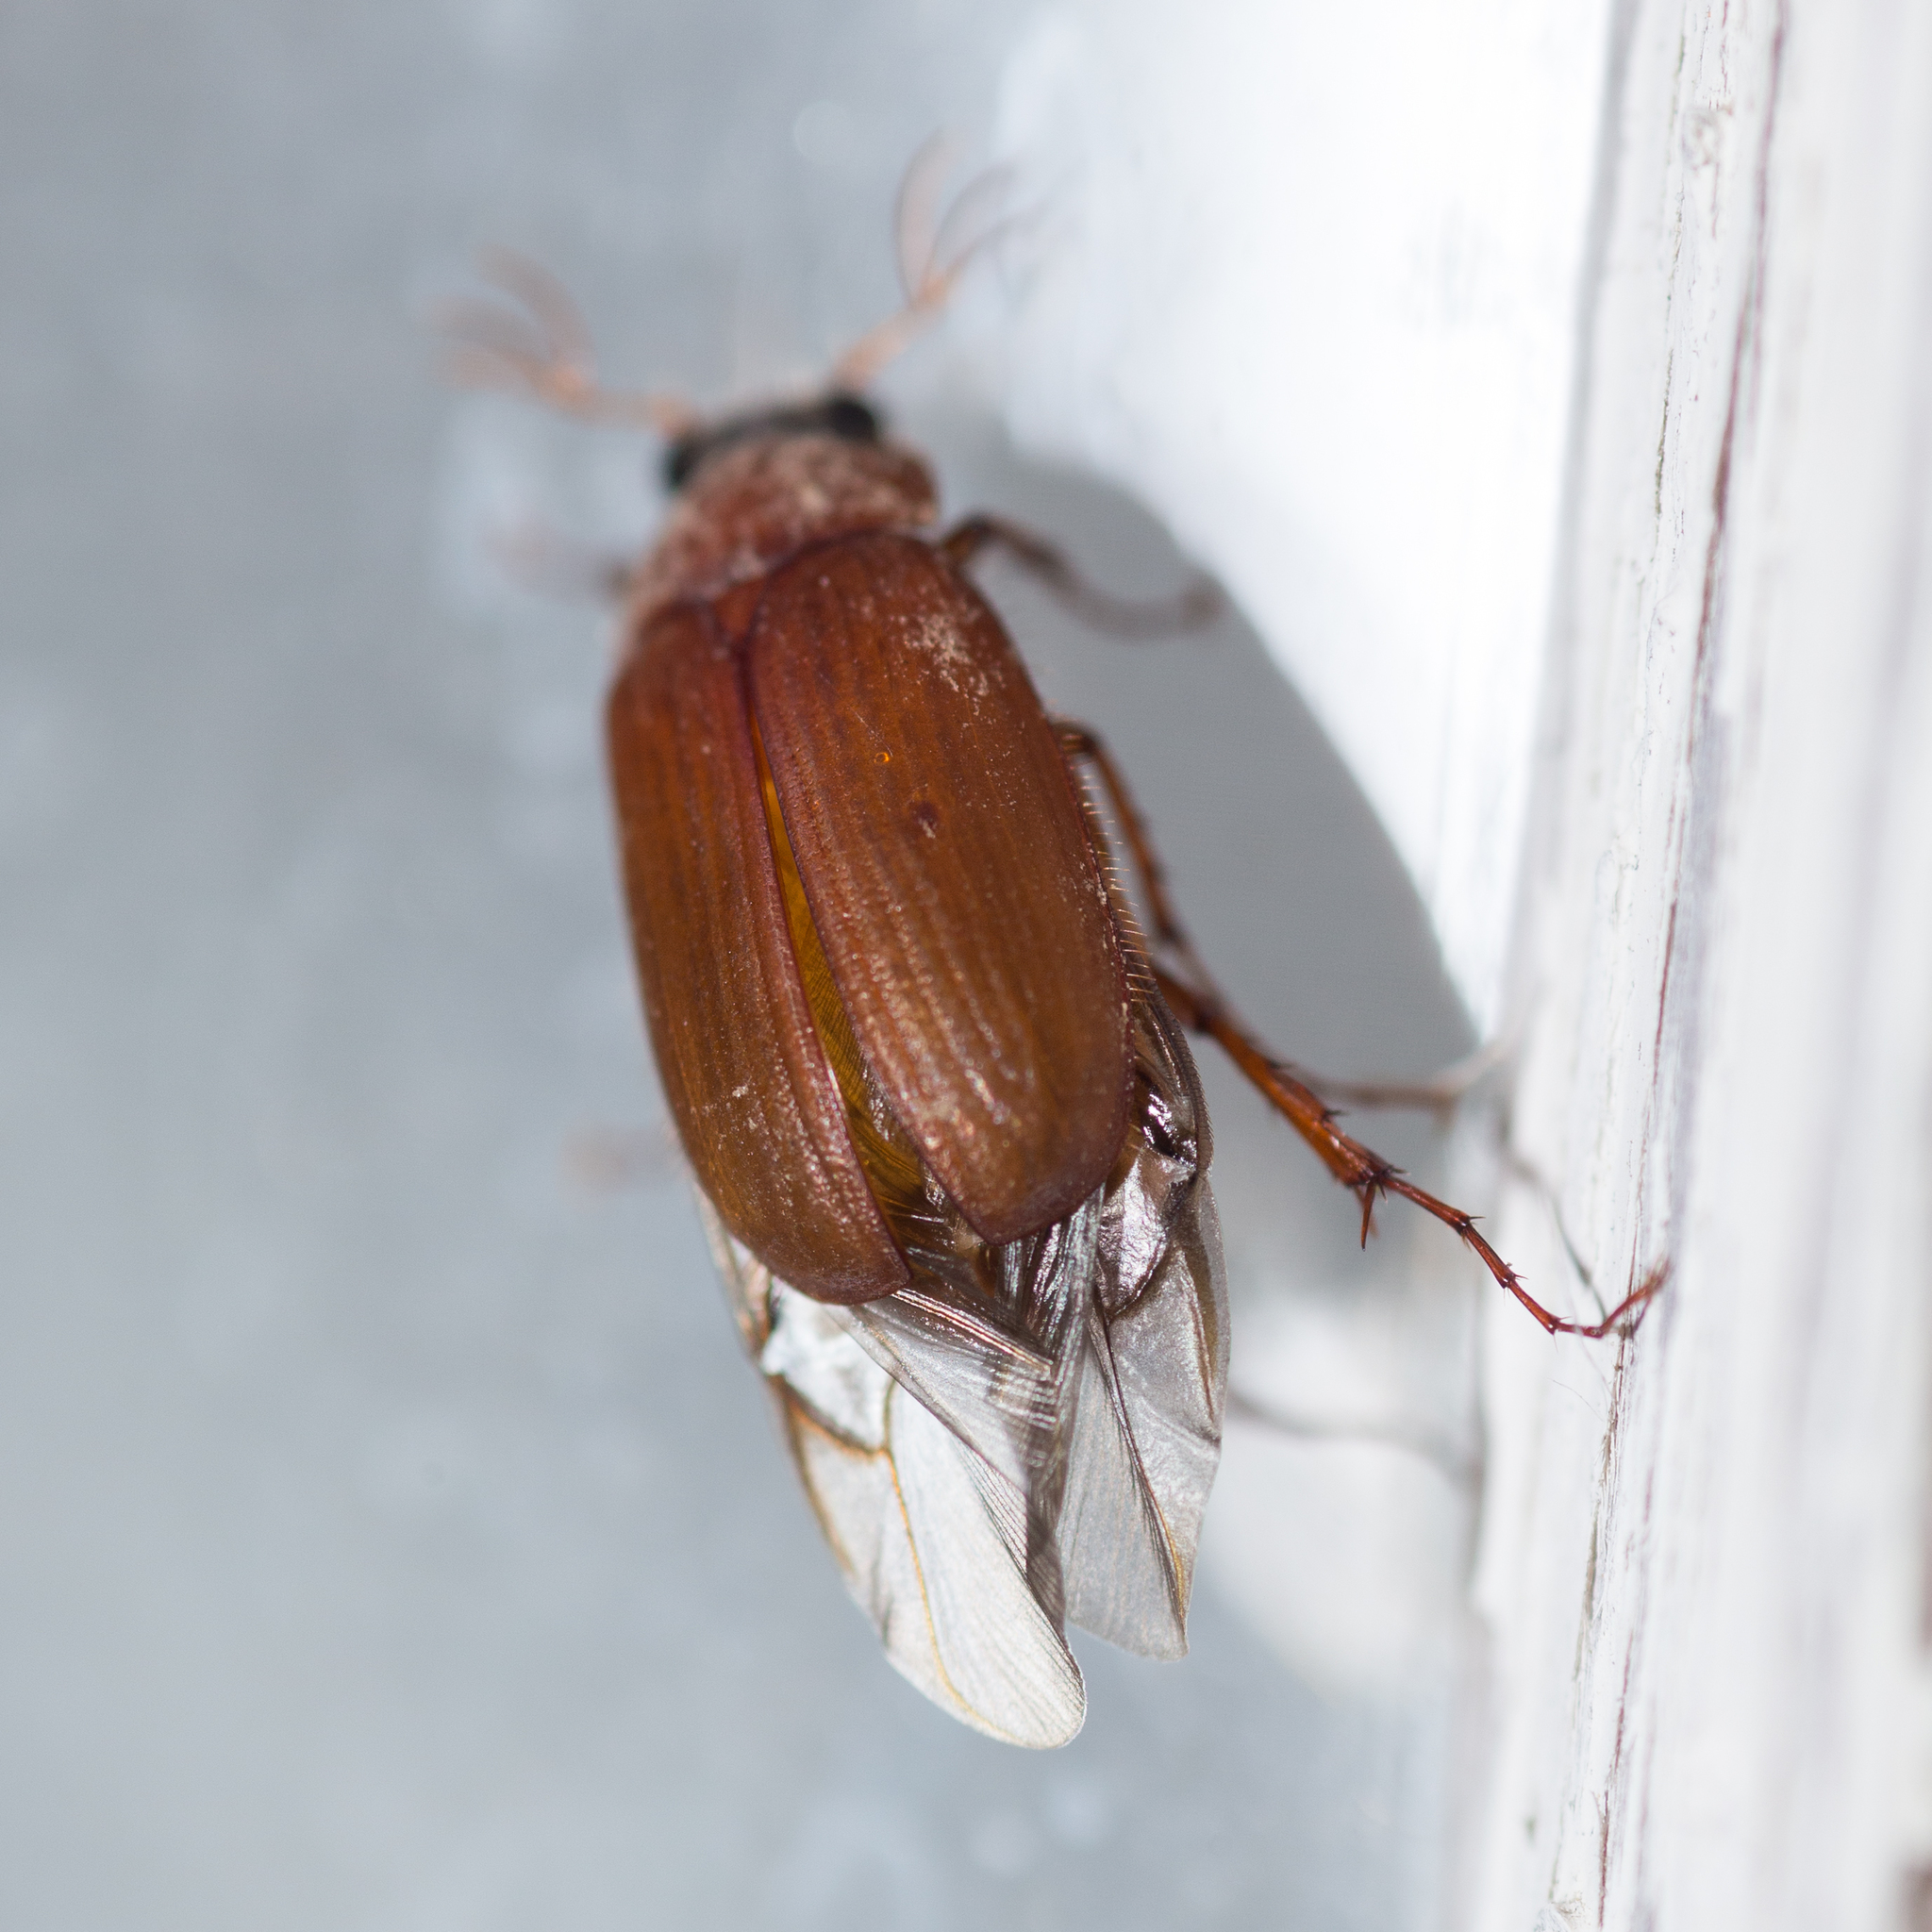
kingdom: Animalia
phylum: Arthropoda
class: Insecta
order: Coleoptera
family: Scarabaeidae
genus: Serica
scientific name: Serica brunnea
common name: Brown chafer
